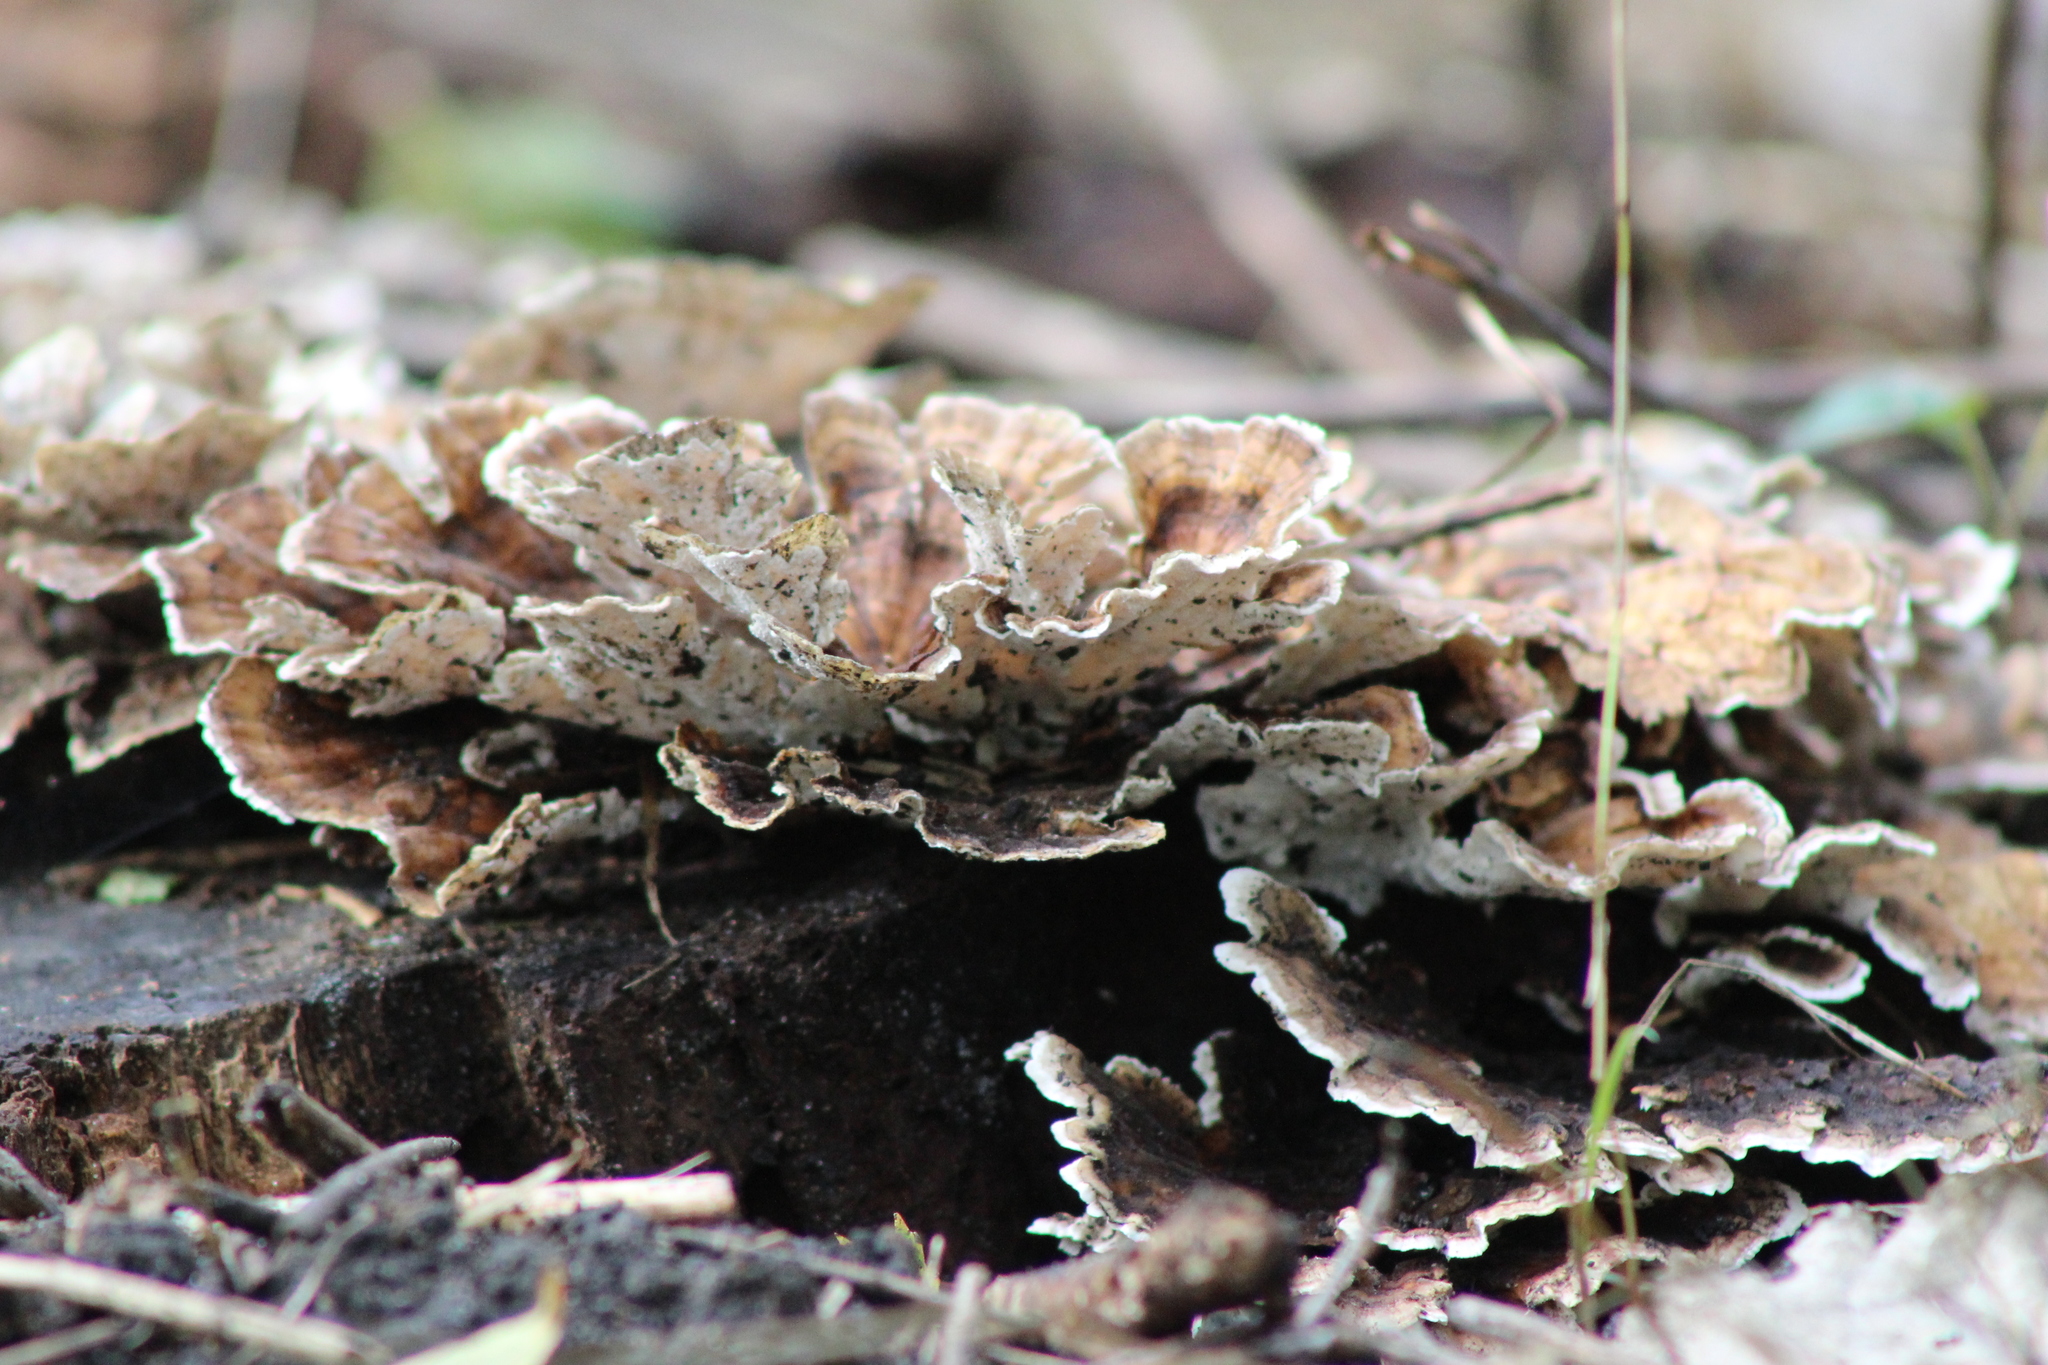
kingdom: Fungi
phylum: Basidiomycota
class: Agaricomycetes
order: Polyporales
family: Polyporaceae
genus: Trametes
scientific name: Trametes versicolor
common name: Turkeytail
